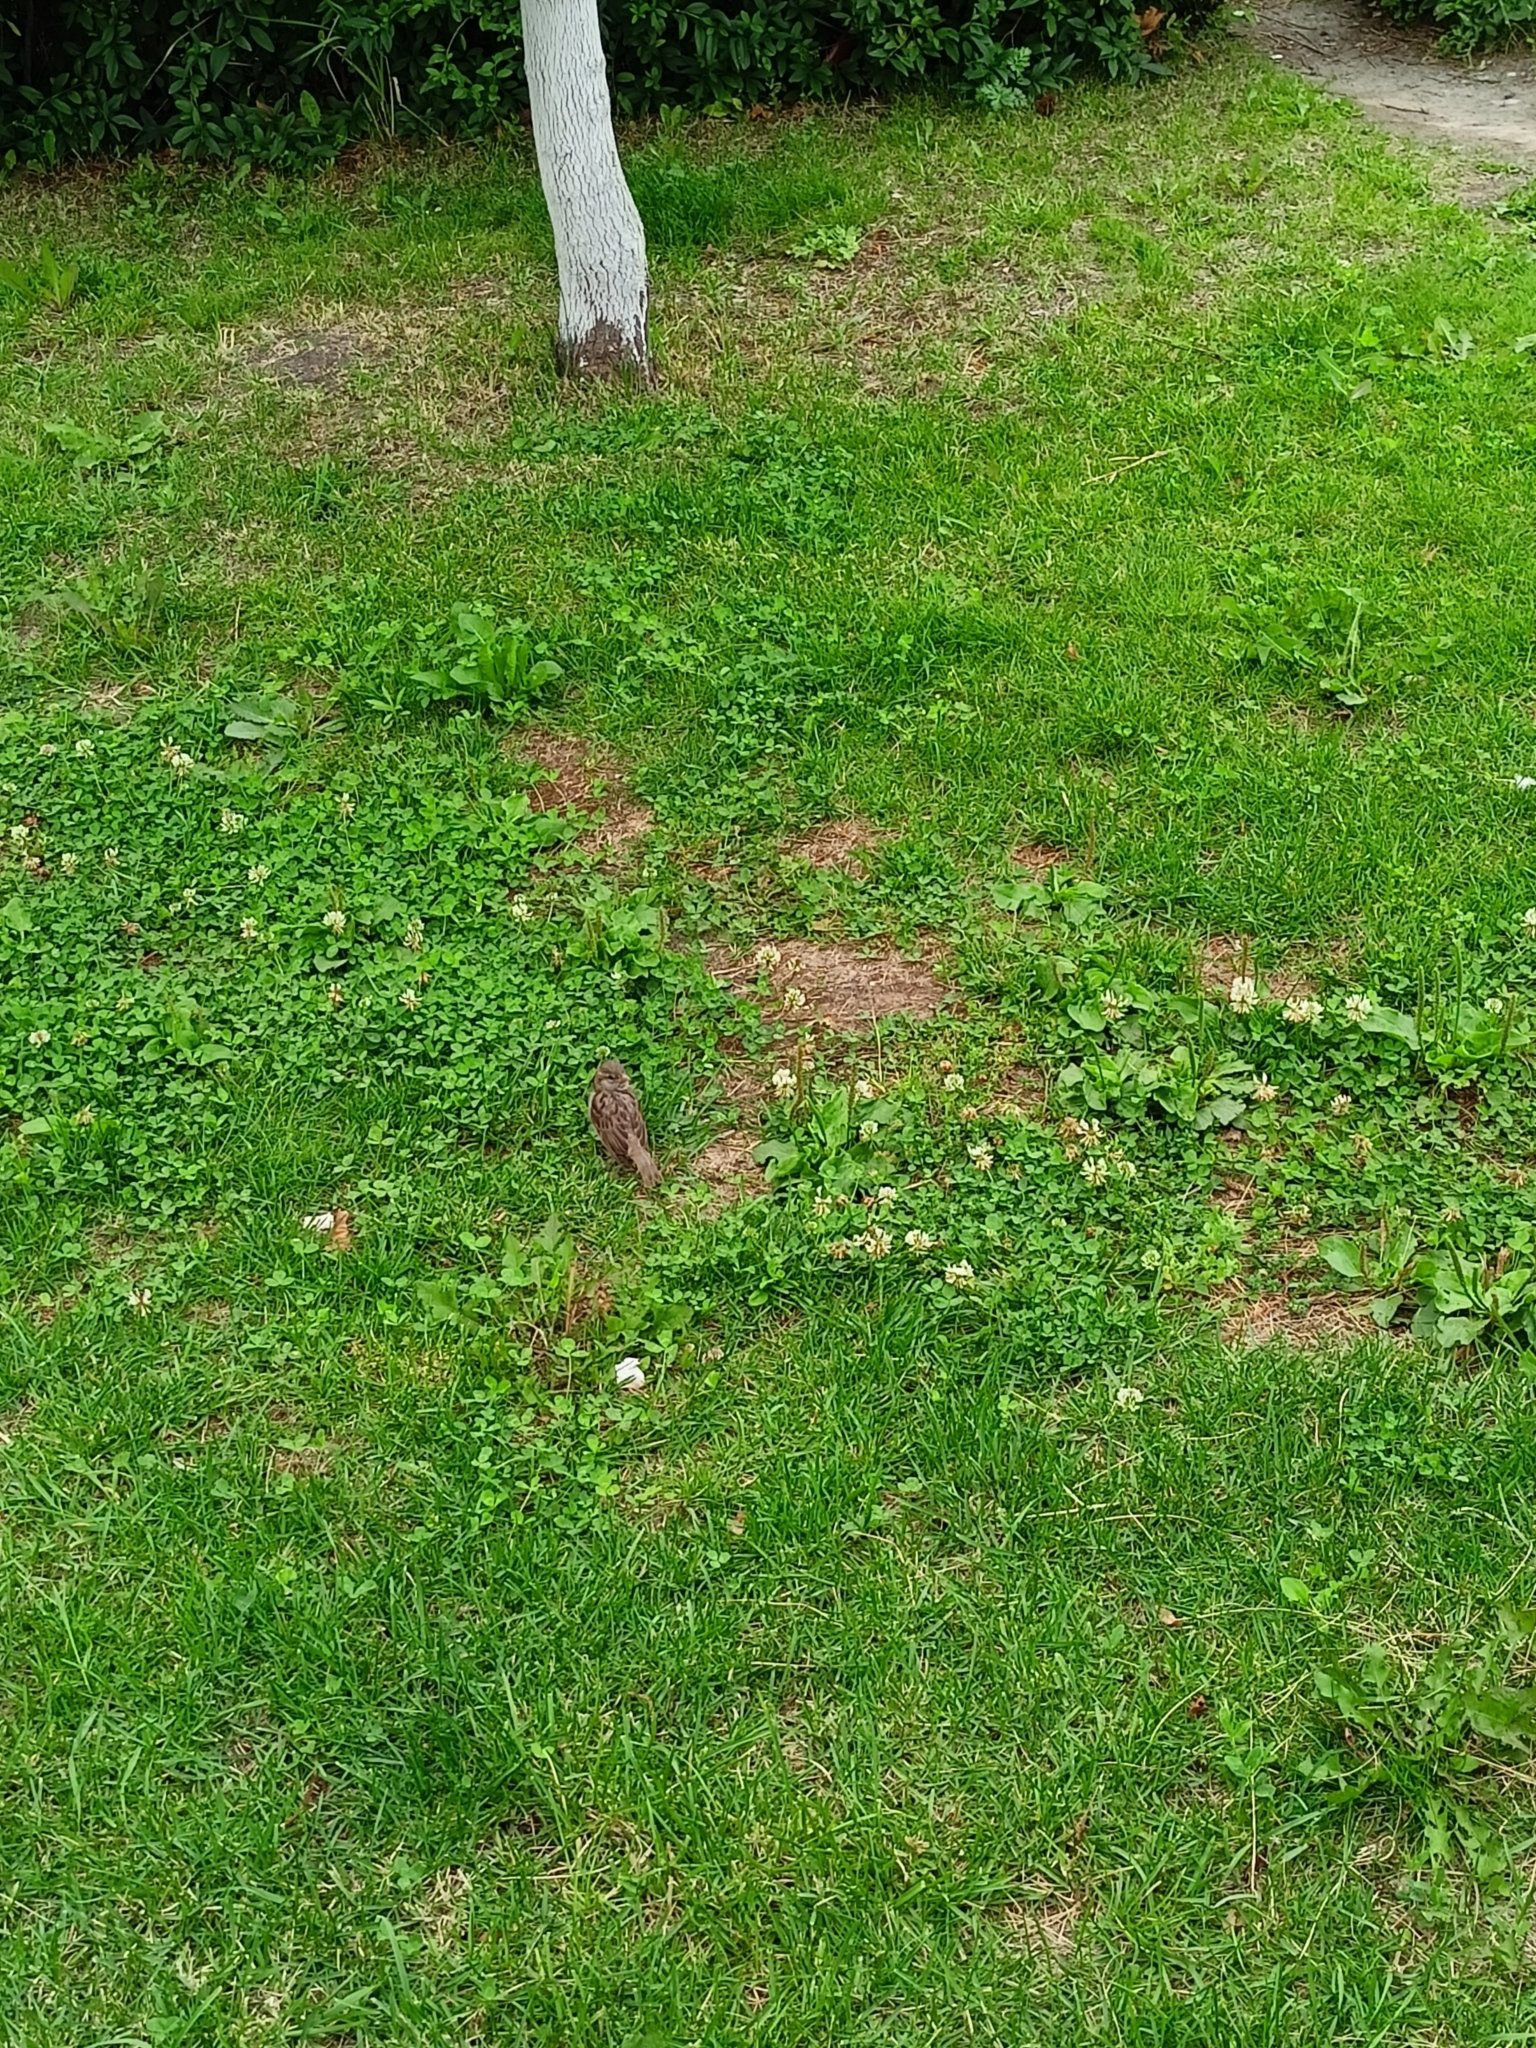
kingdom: Animalia
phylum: Chordata
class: Aves
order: Passeriformes
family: Passeridae
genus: Passer
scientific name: Passer domesticus
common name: House sparrow
